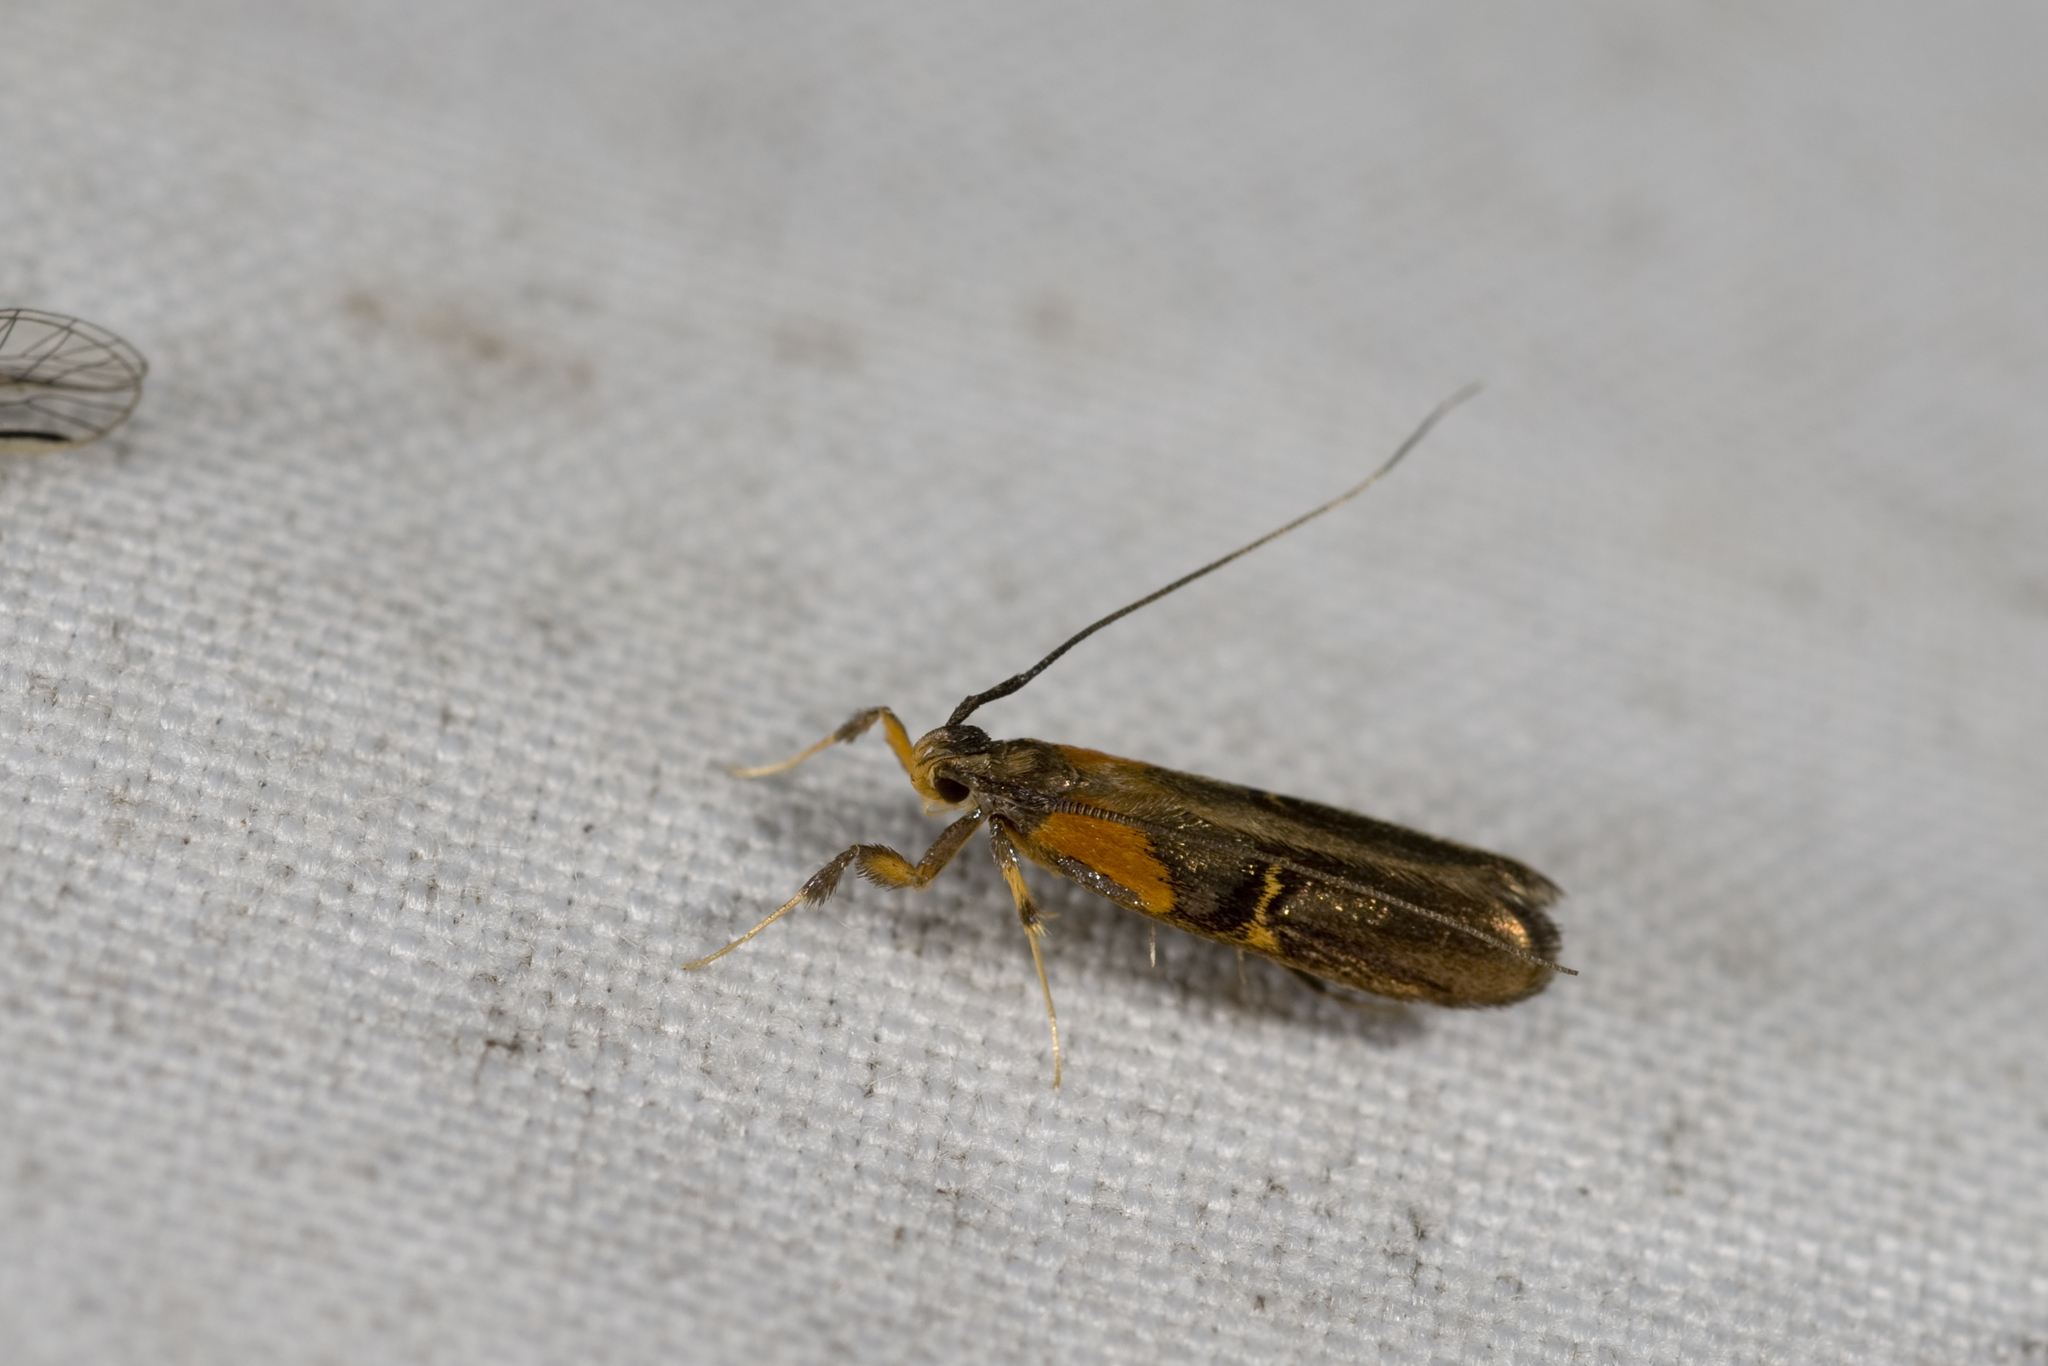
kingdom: Animalia
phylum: Arthropoda
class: Insecta
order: Lepidoptera
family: Lecithoceridae
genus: Tisis
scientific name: Tisis mesozosta
